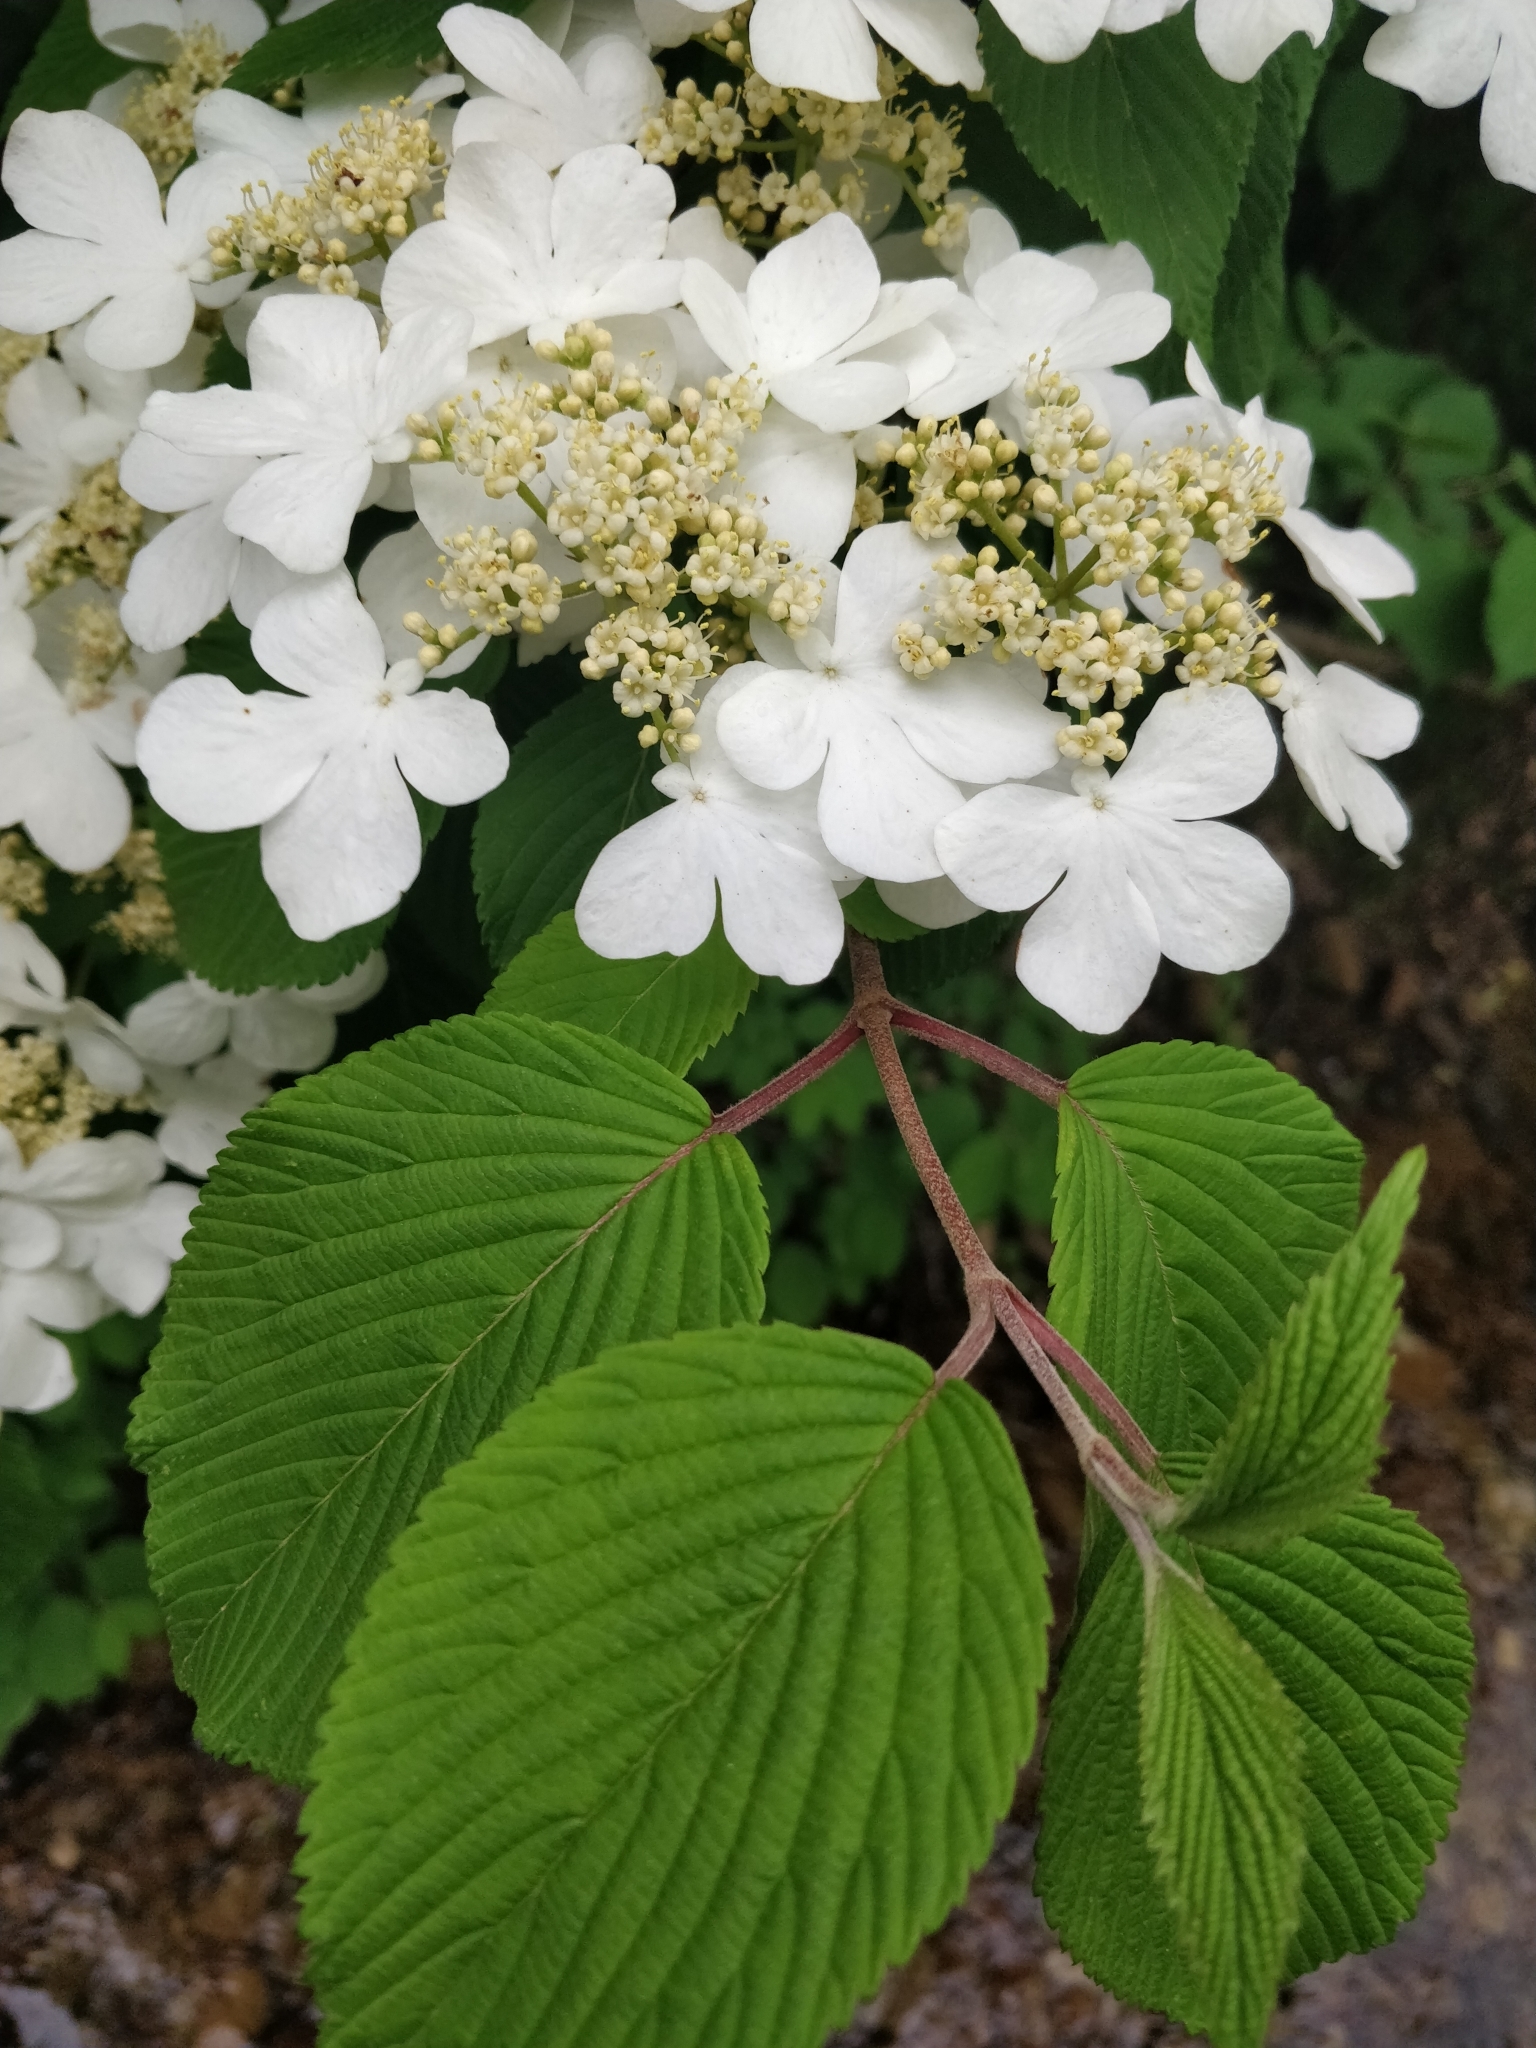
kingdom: Plantae
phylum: Tracheophyta
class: Magnoliopsida
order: Dipsacales
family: Viburnaceae
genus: Viburnum
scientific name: Viburnum plicatum
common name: Japanese snowball
